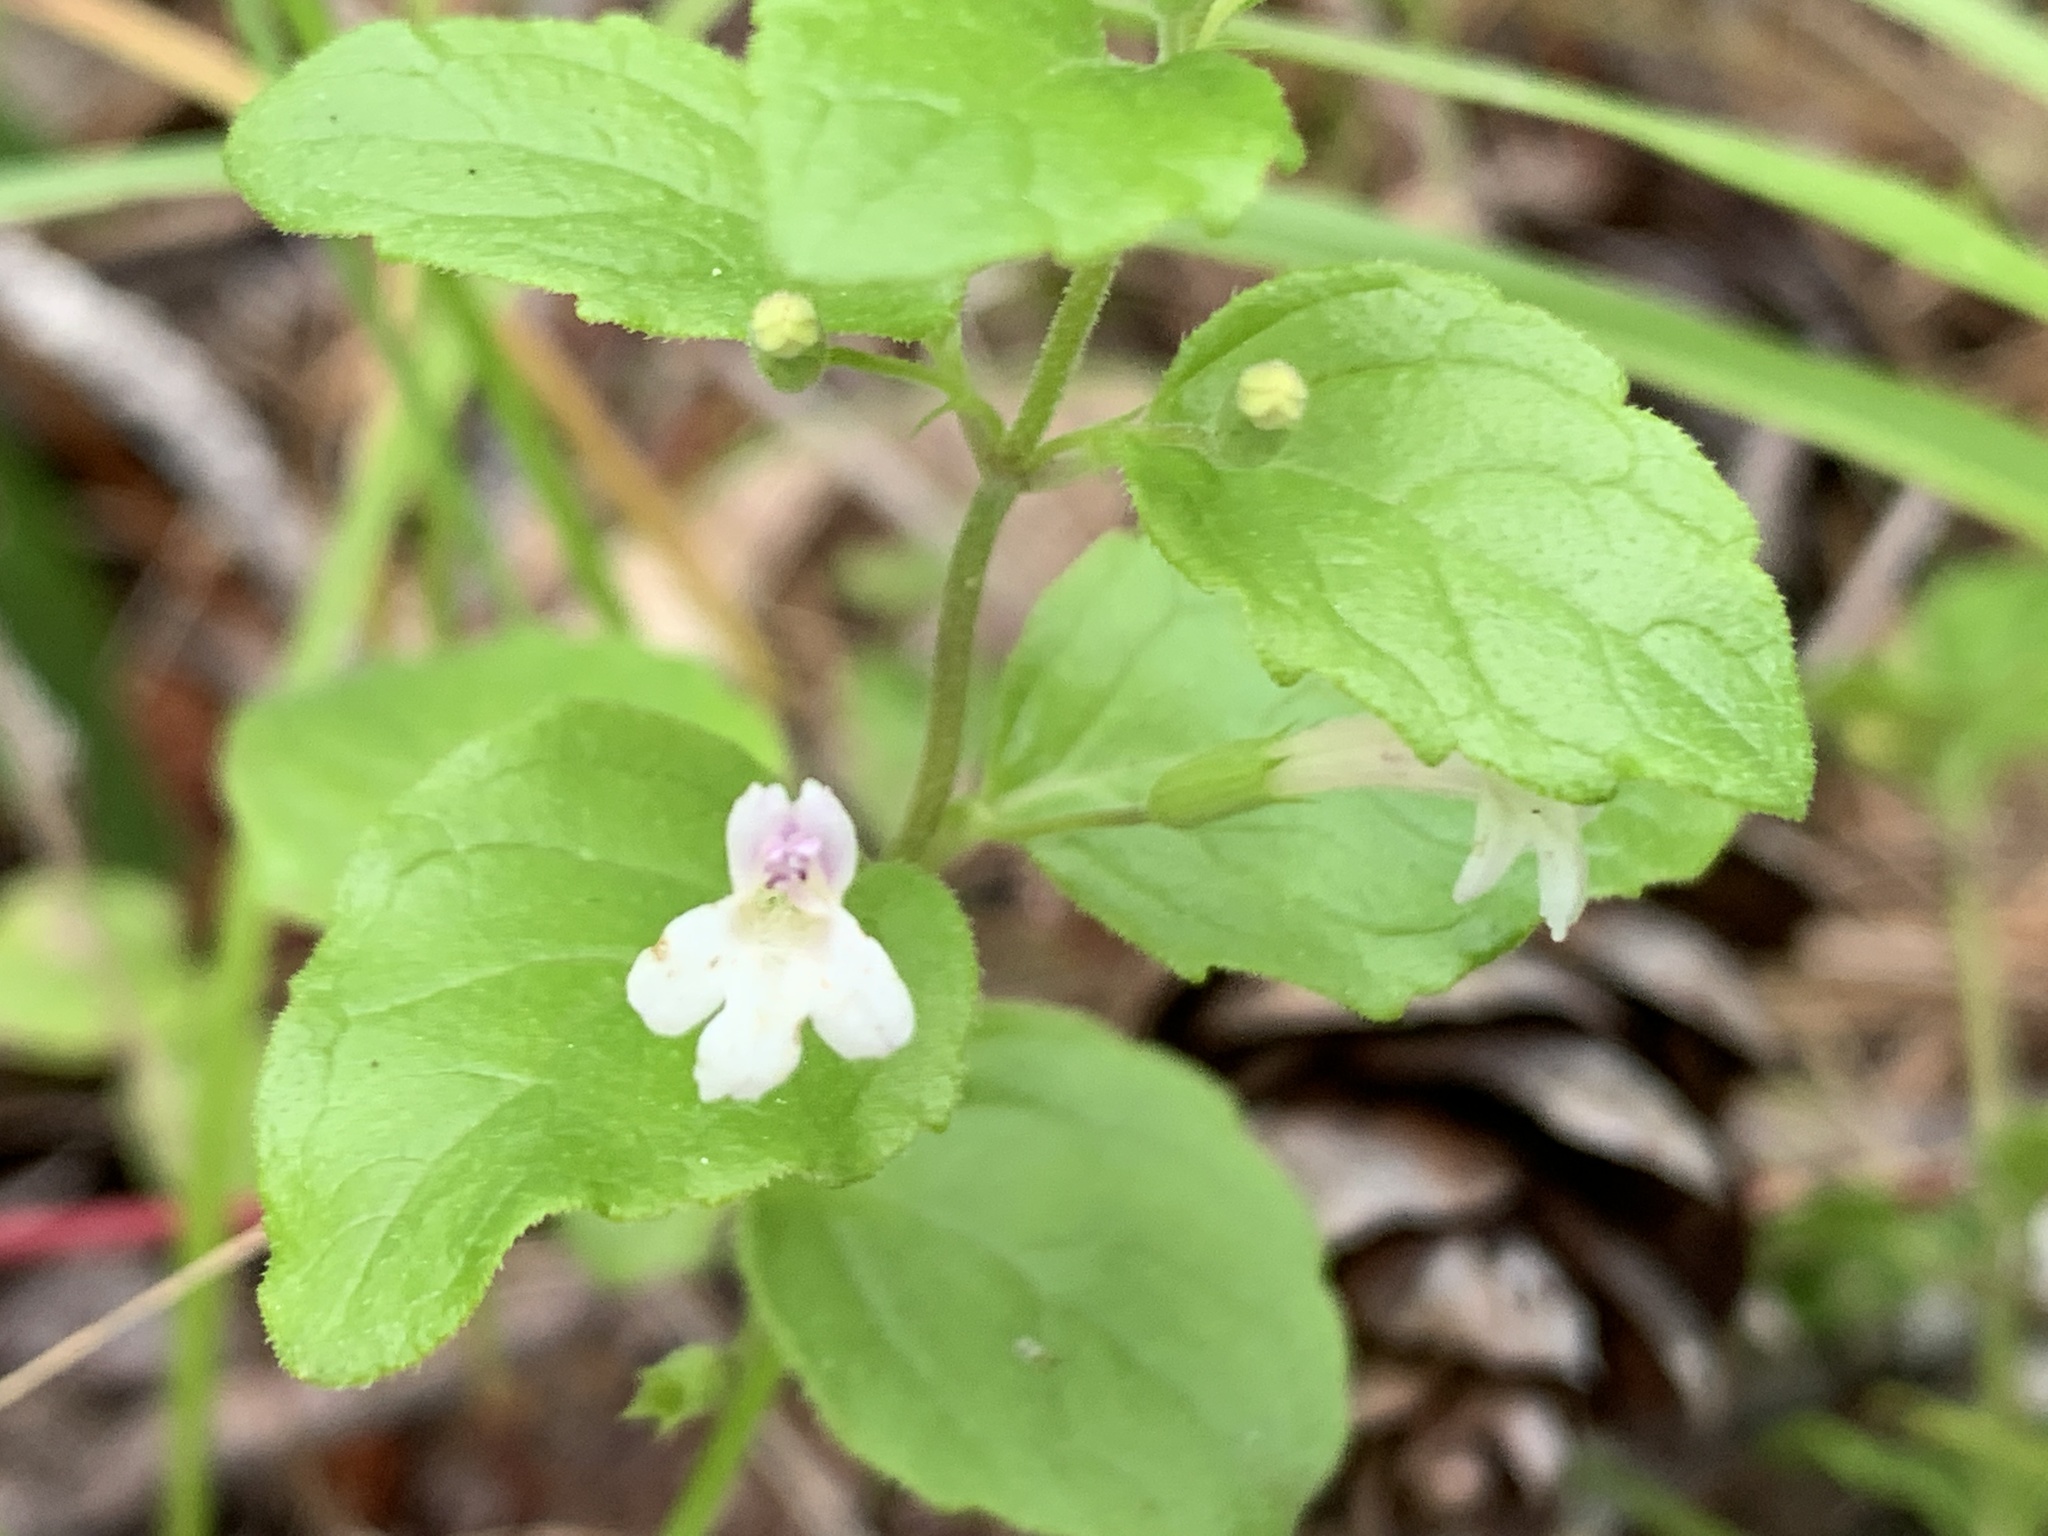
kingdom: Plantae
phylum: Tracheophyta
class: Magnoliopsida
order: Lamiales
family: Lamiaceae
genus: Micromeria
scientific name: Micromeria douglasii
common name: Yerba buena
